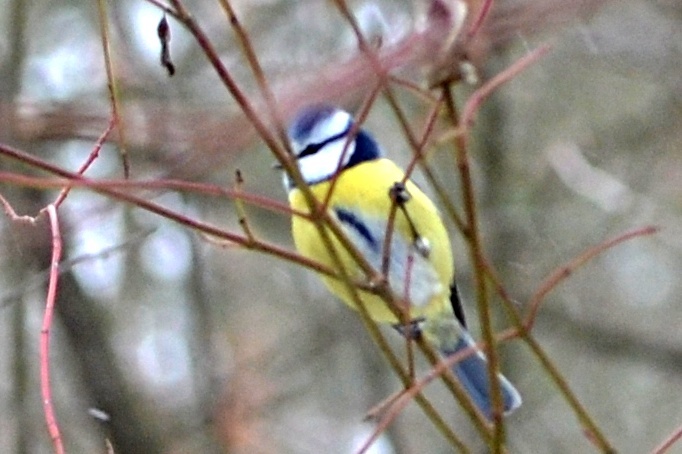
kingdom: Animalia
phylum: Chordata
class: Aves
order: Passeriformes
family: Paridae
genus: Cyanistes
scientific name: Cyanistes caeruleus
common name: Eurasian blue tit
